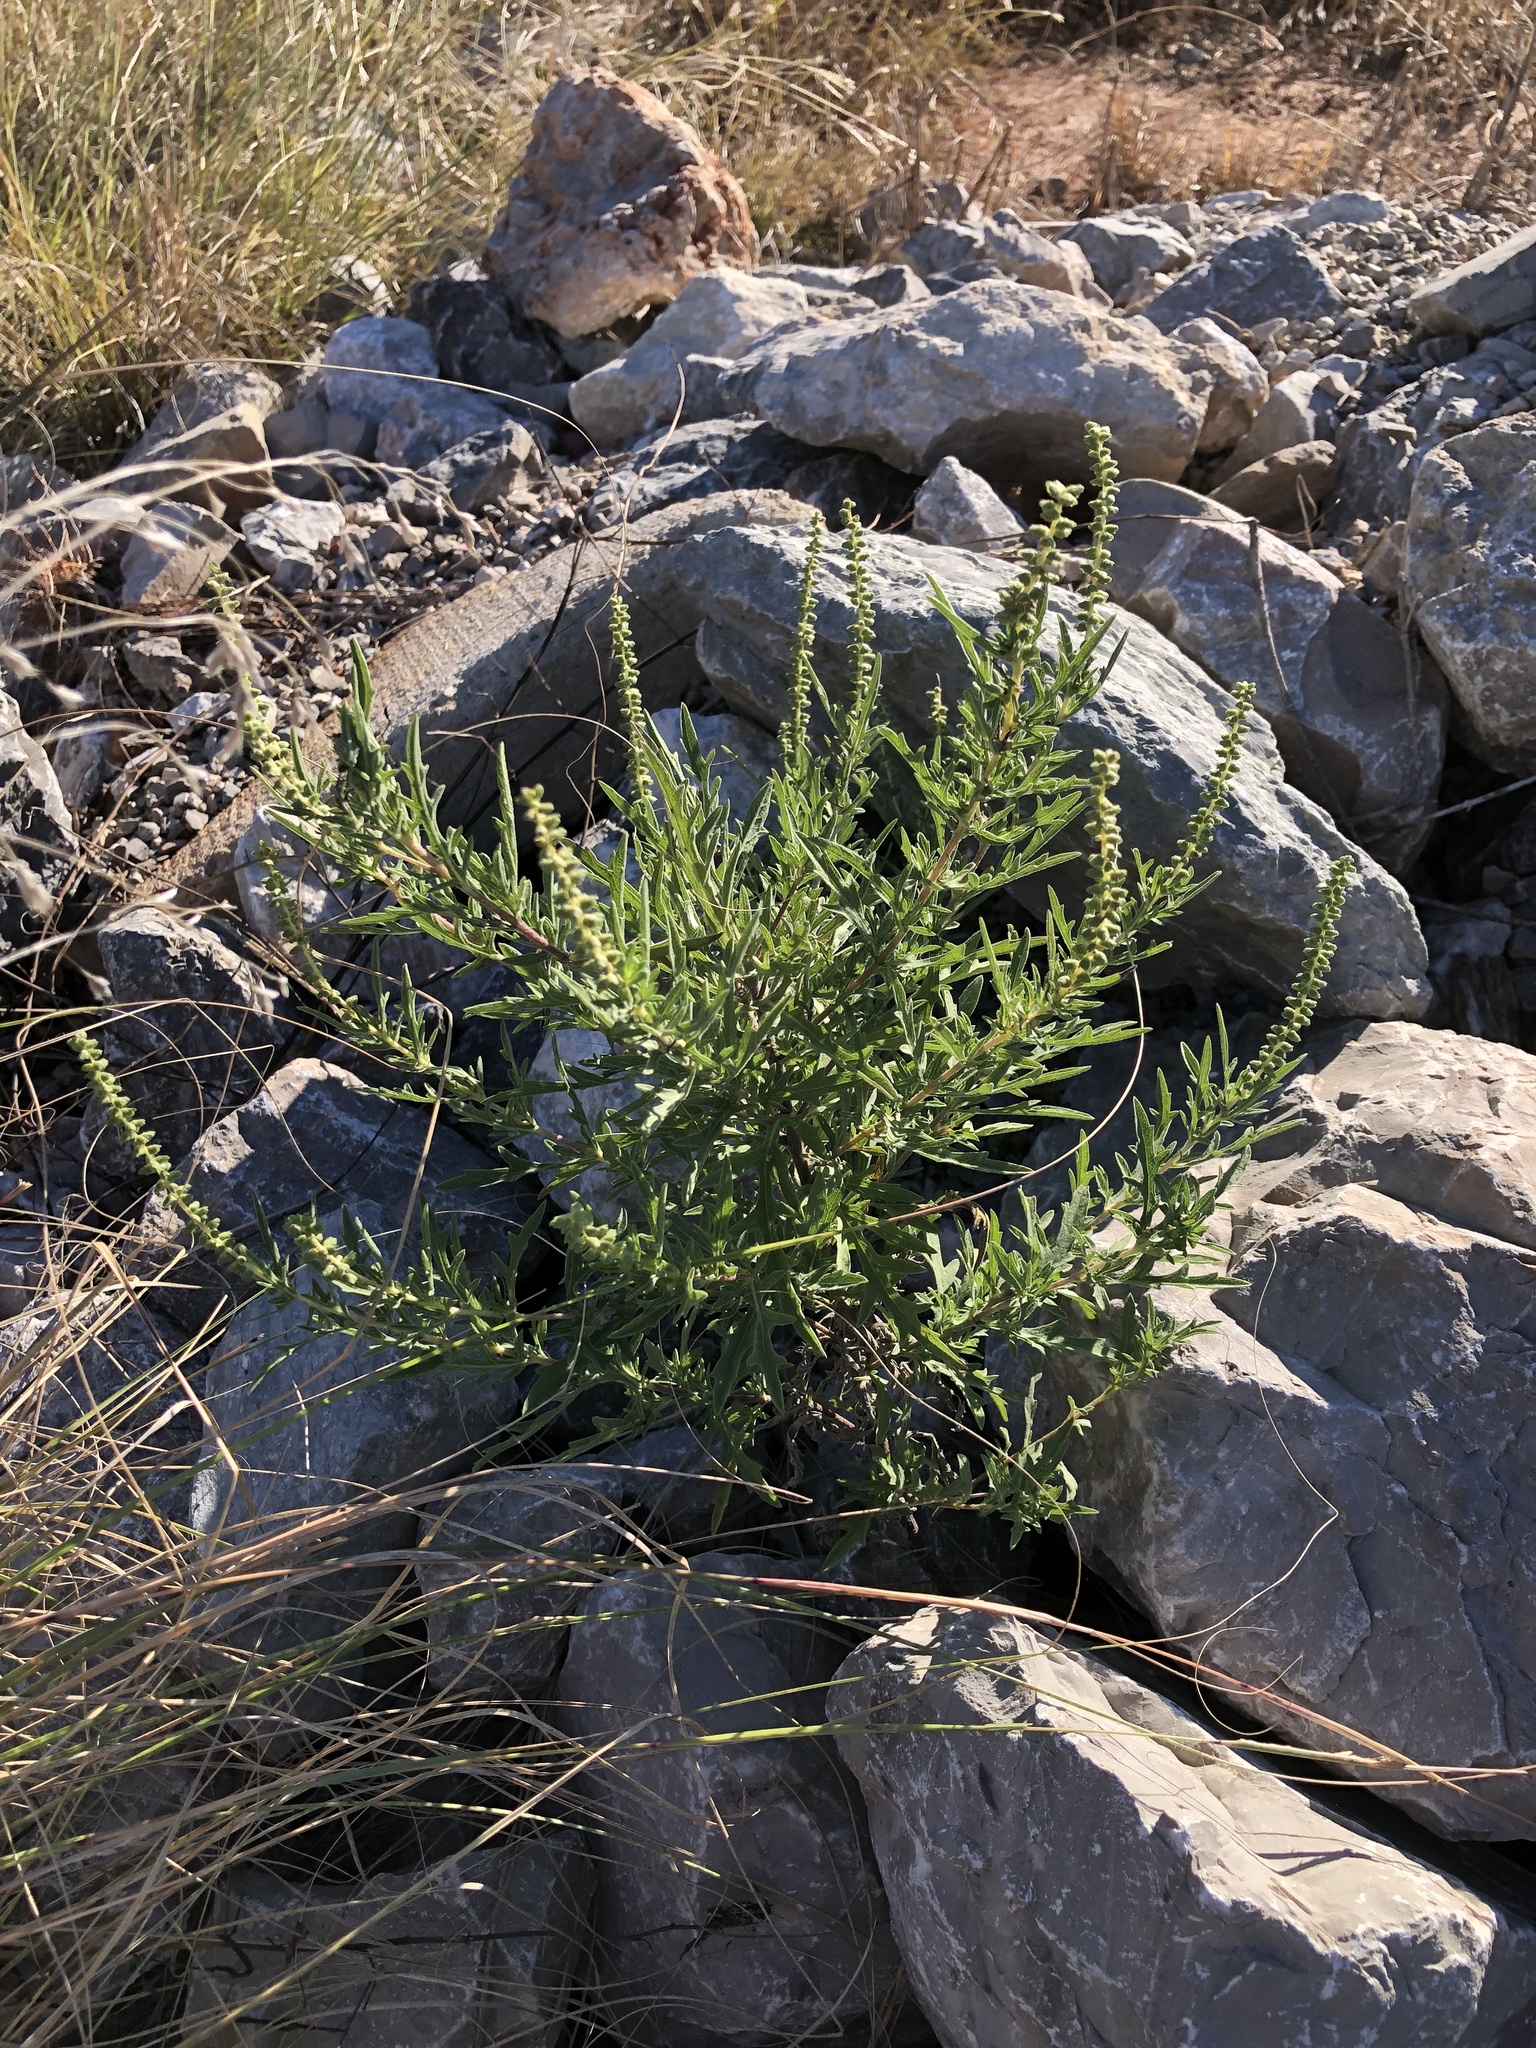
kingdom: Plantae
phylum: Tracheophyta
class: Magnoliopsida
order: Asterales
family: Asteraceae
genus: Ambrosia
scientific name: Ambrosia psilostachya
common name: Perennial ragweed
